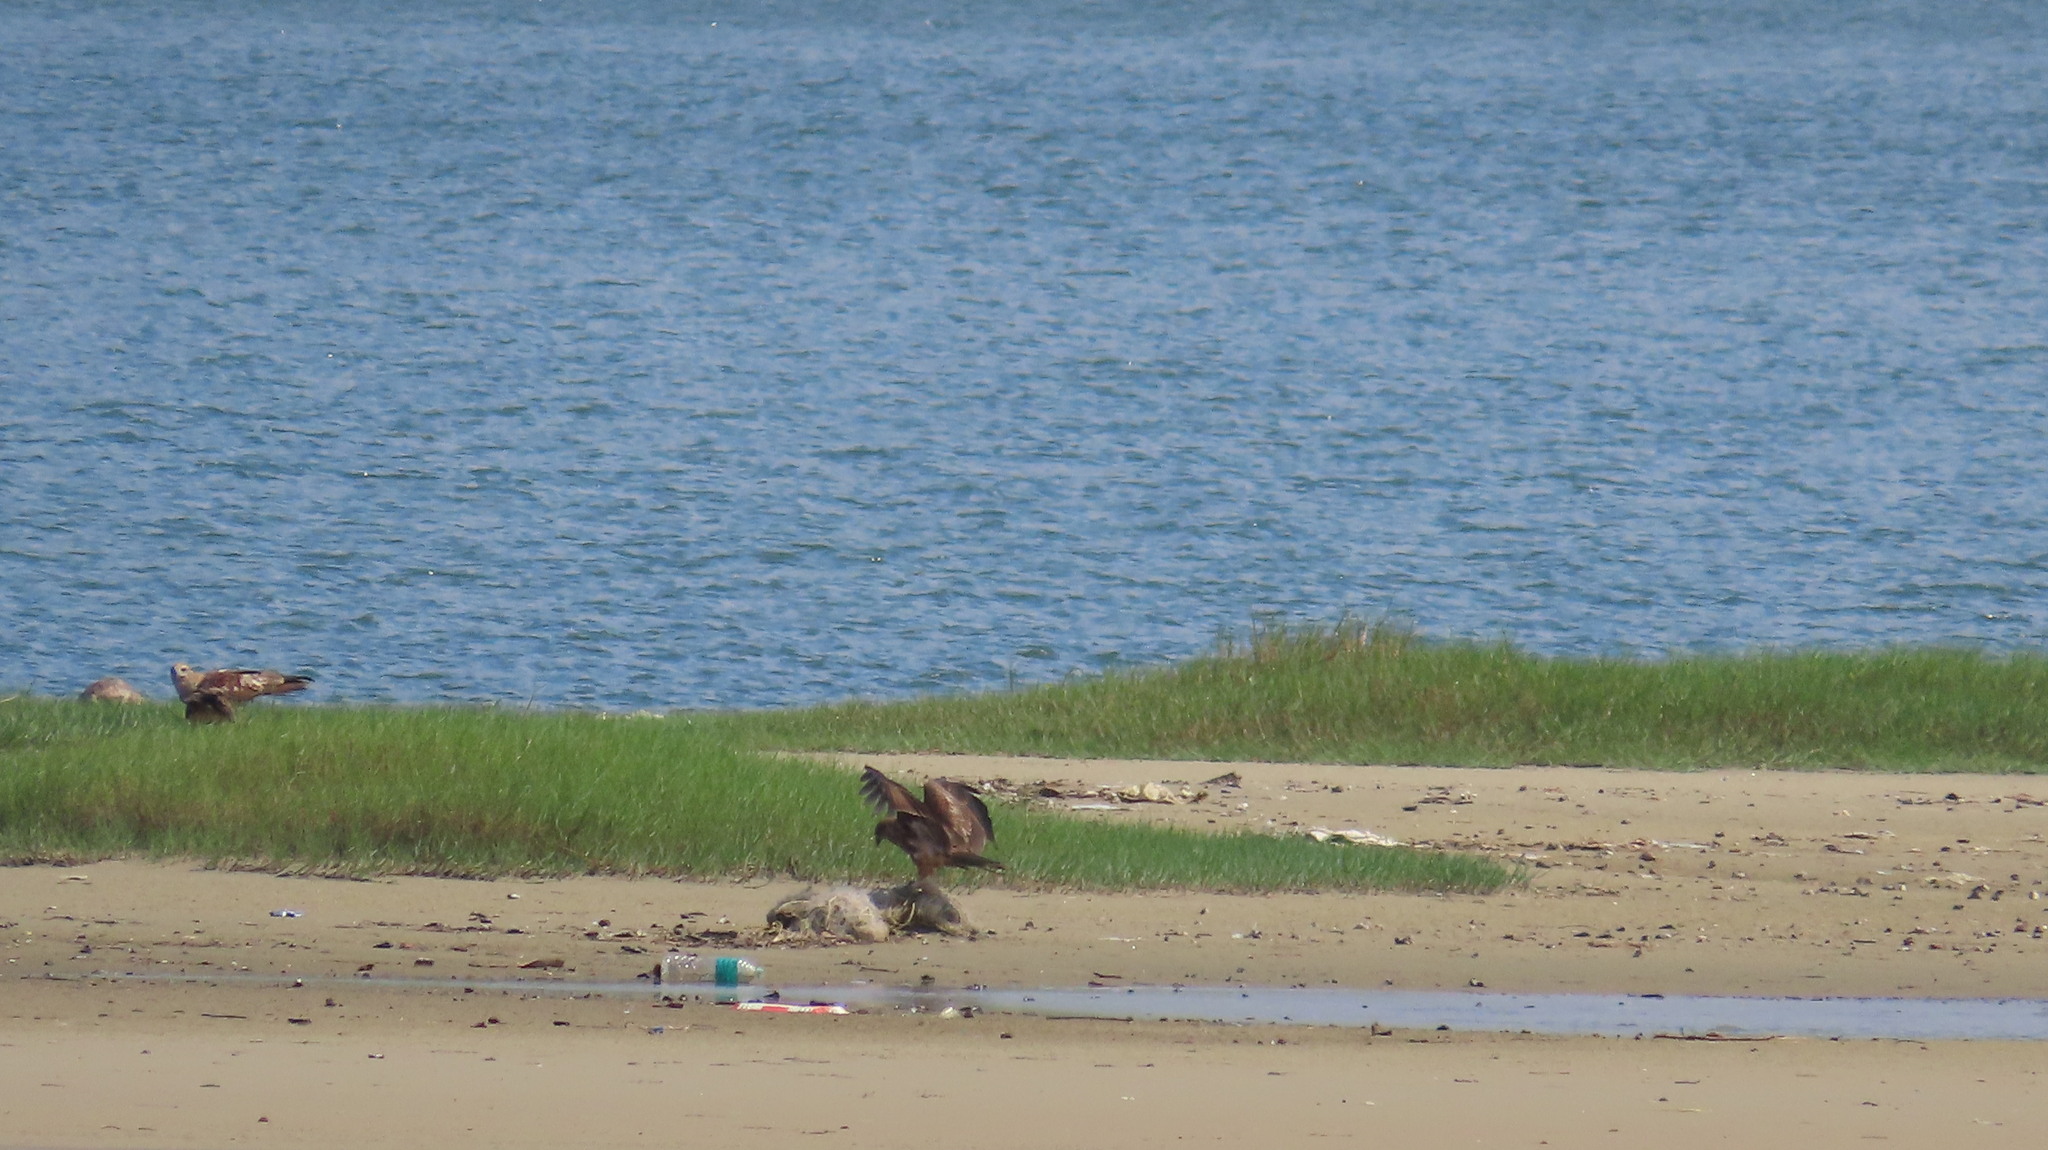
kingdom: Animalia
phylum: Chordata
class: Aves
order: Accipitriformes
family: Accipitridae
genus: Haliastur
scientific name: Haliastur indus
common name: Brahminy kite
